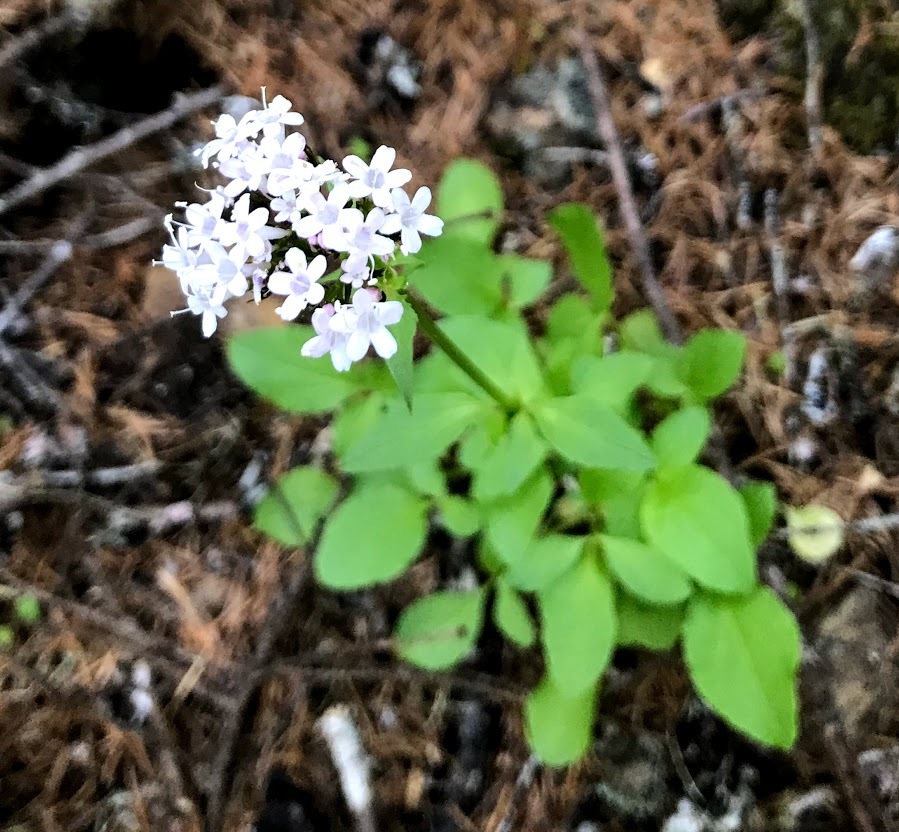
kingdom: Plantae
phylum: Tracheophyta
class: Magnoliopsida
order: Dipsacales
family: Caprifoliaceae
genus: Valeriana
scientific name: Valeriana scouleri
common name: Scouler's valerian
